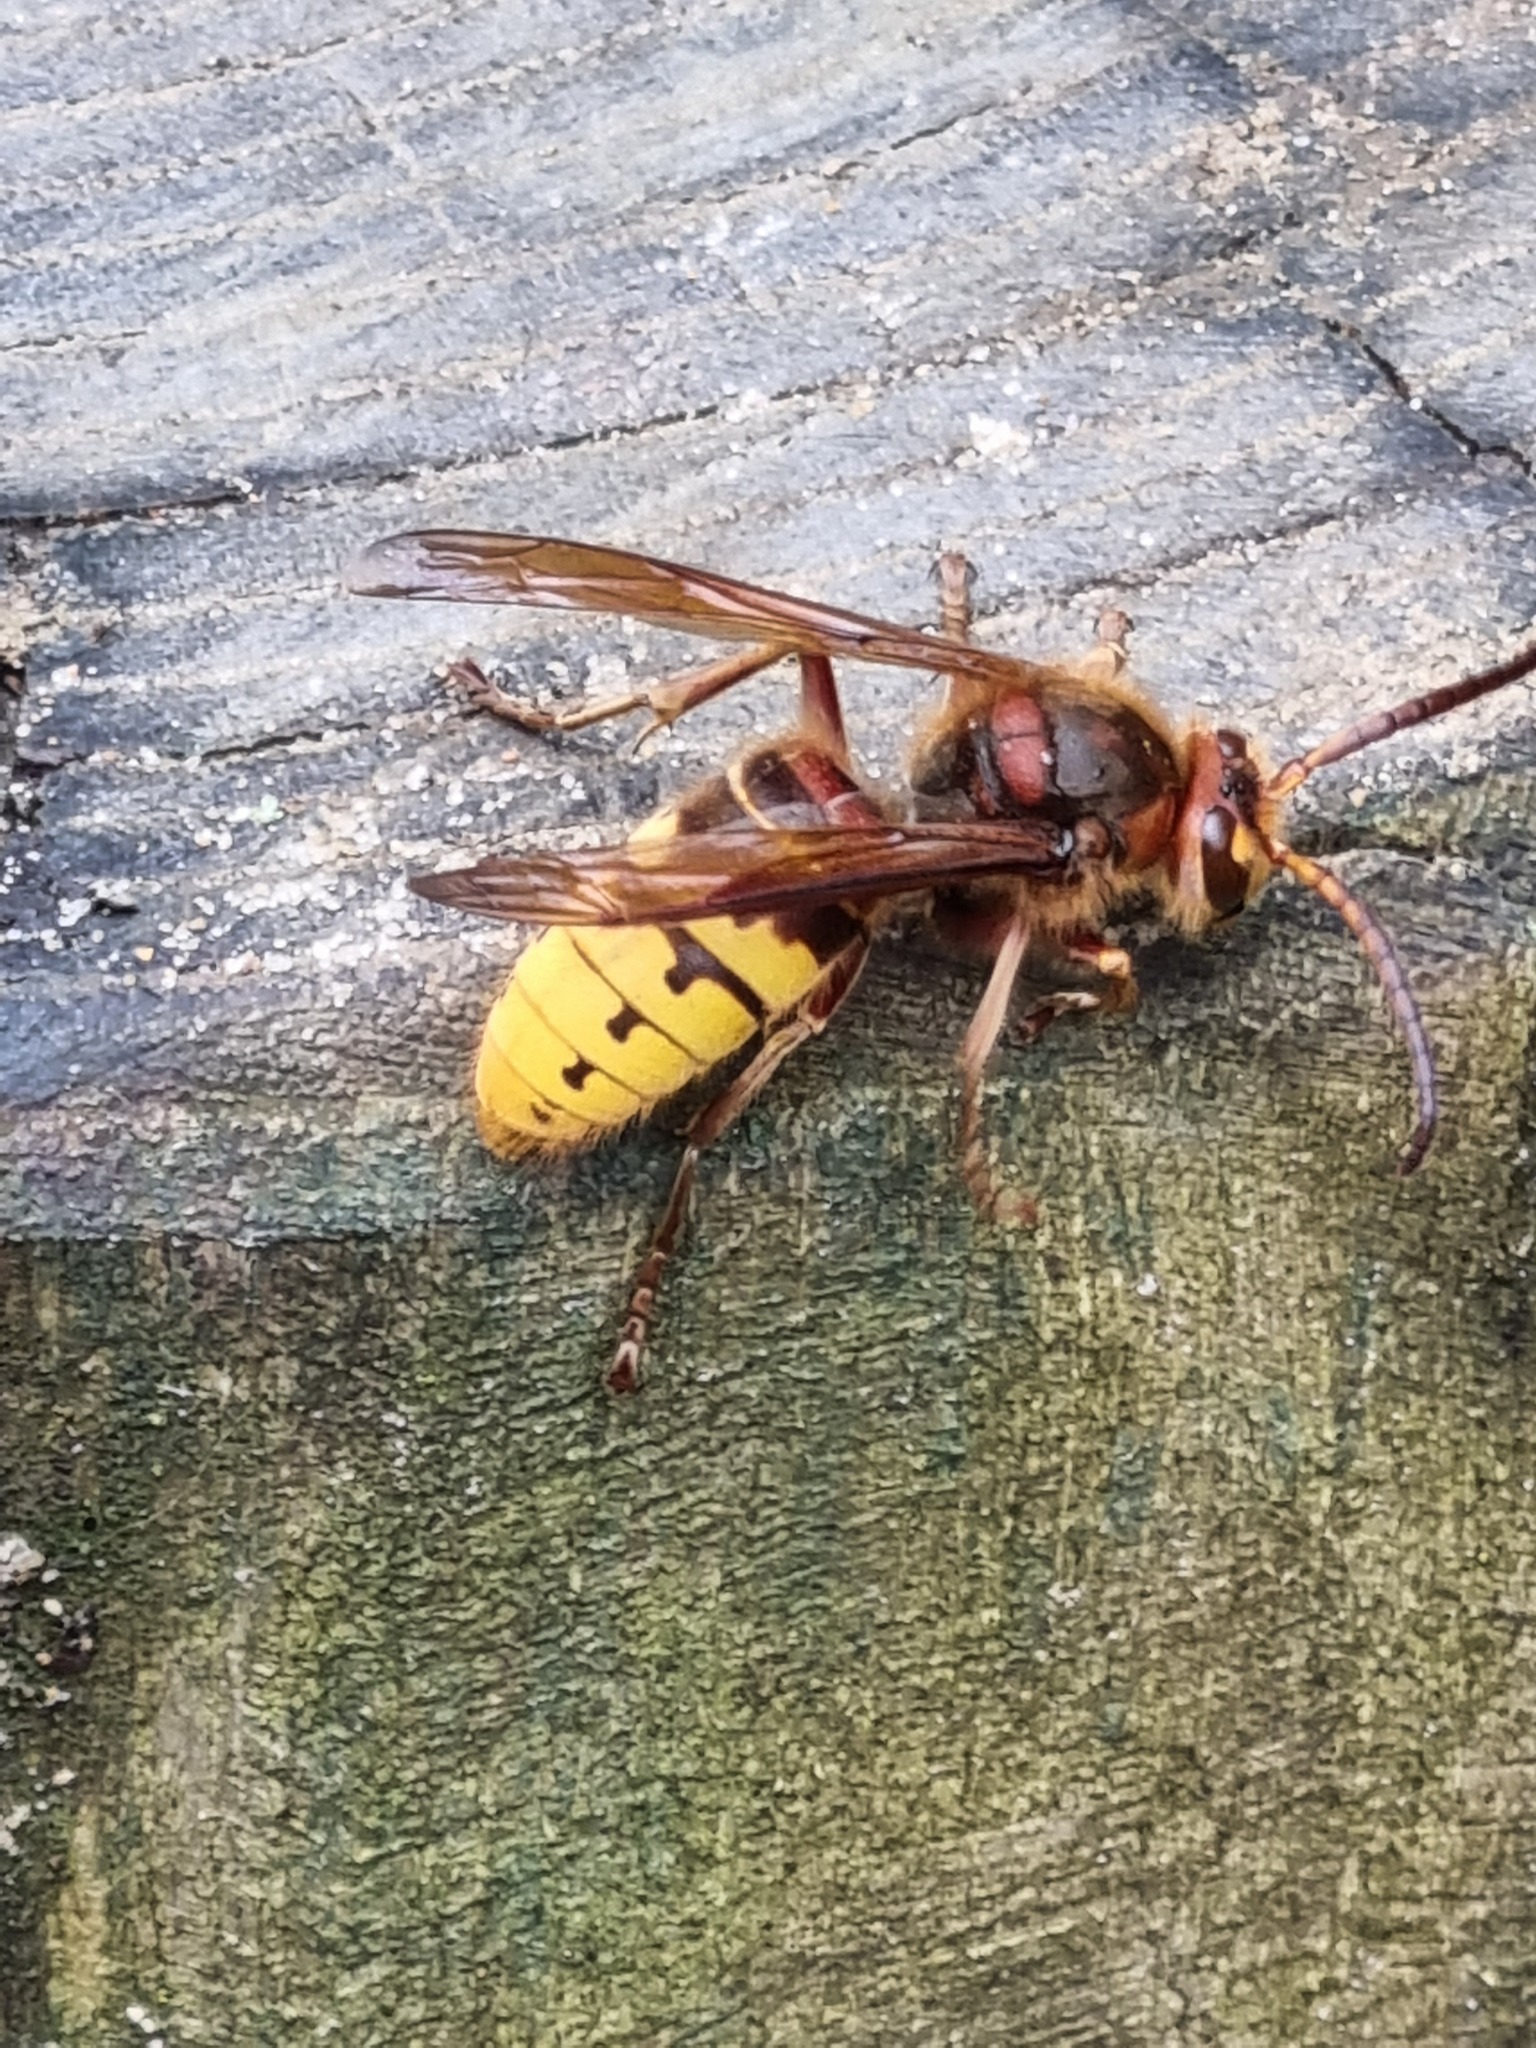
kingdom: Animalia
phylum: Arthropoda
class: Insecta
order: Hymenoptera
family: Vespidae
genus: Vespa
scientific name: Vespa crabro
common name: Hornet
